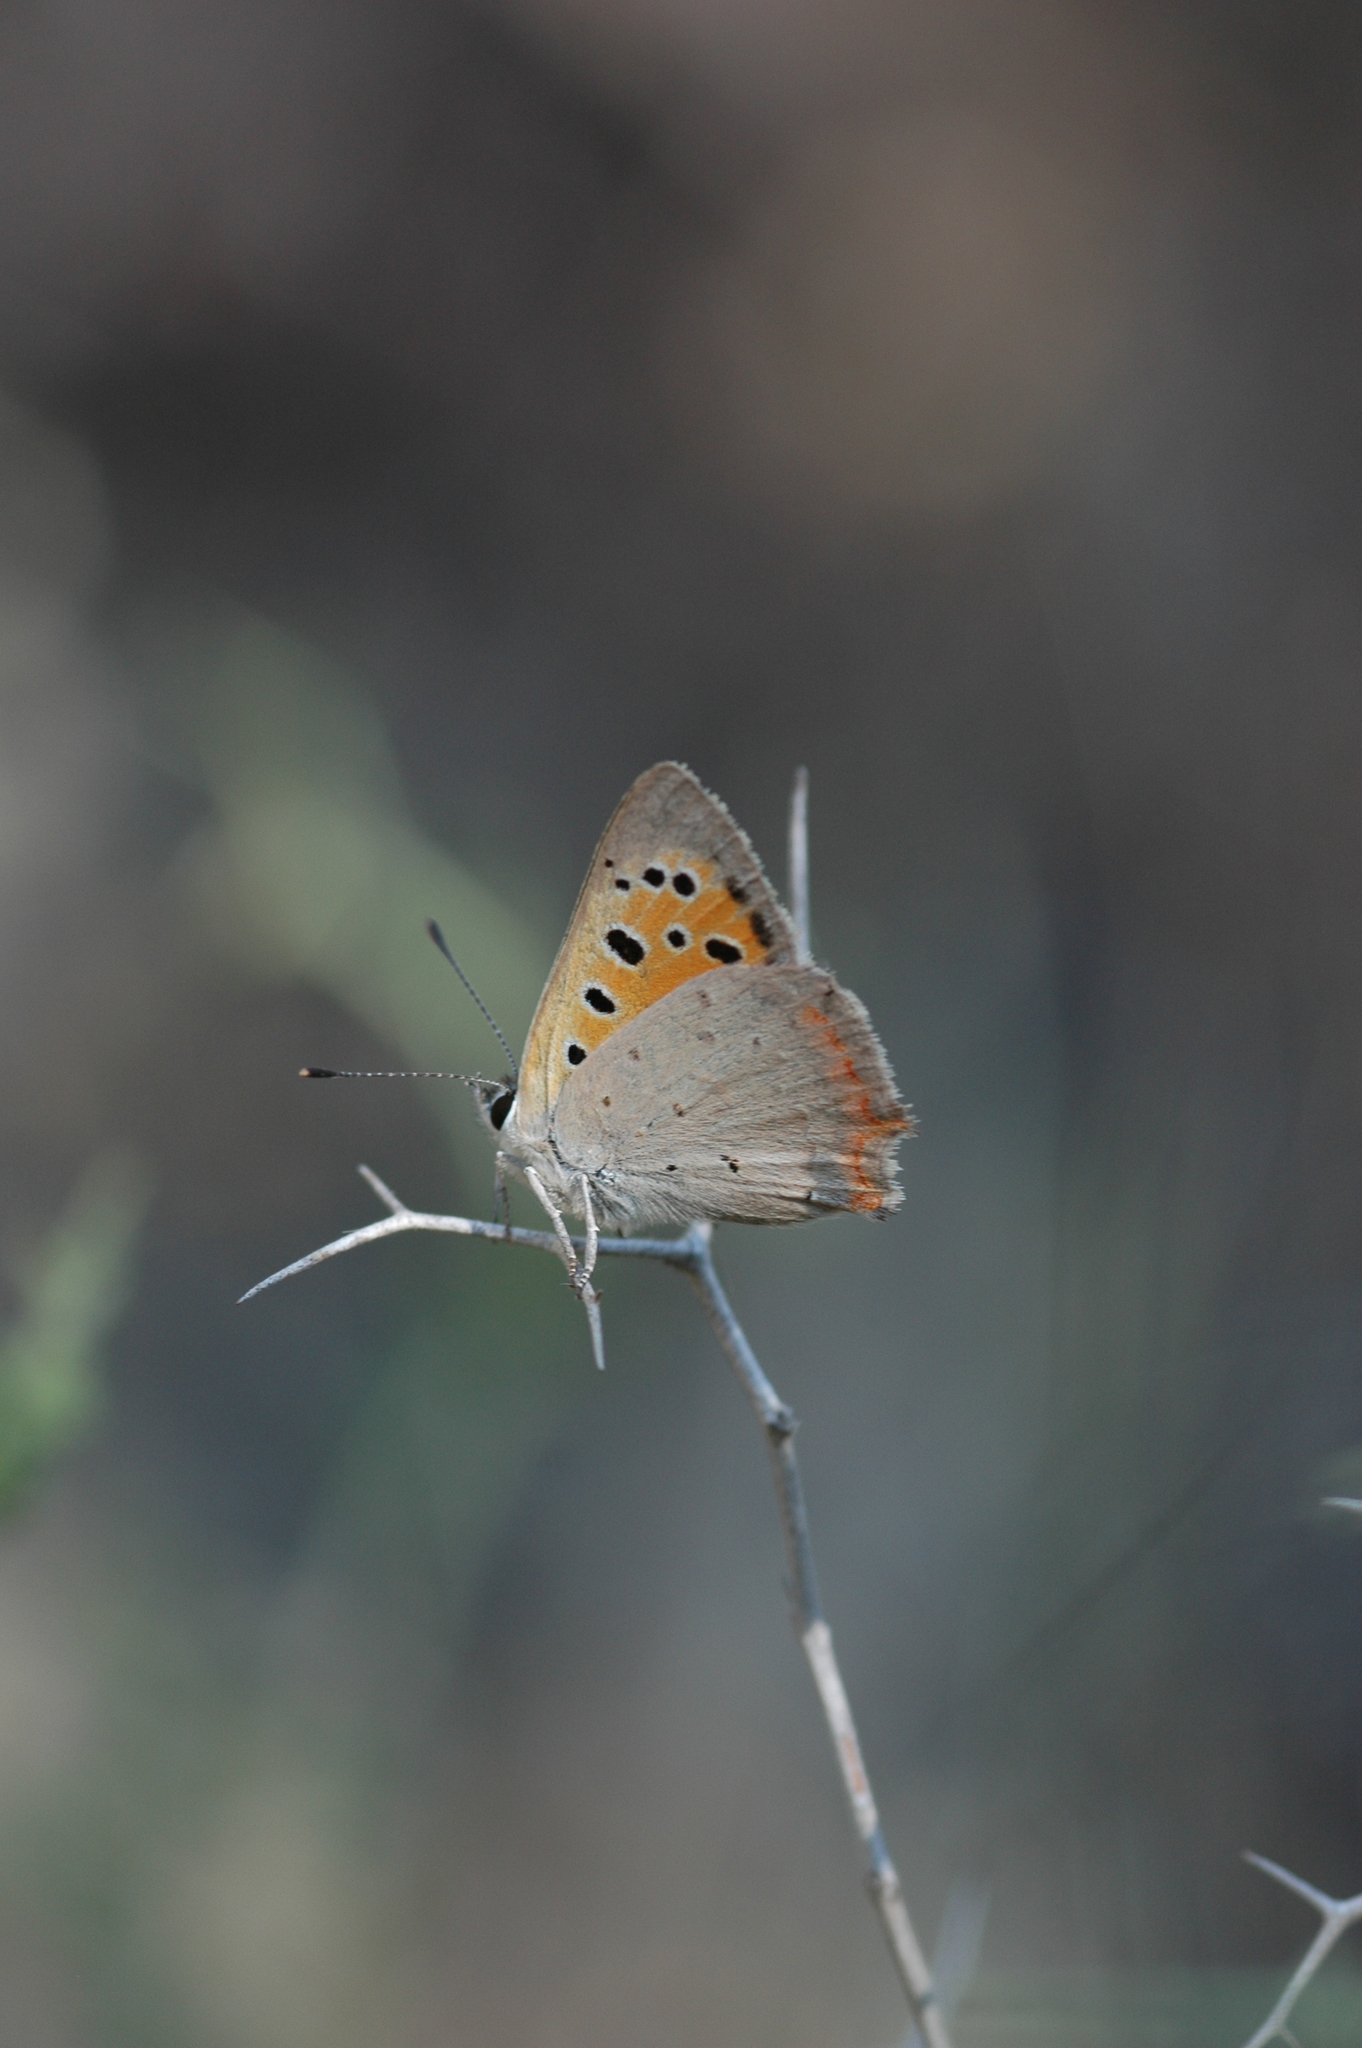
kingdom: Animalia
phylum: Arthropoda
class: Insecta
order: Lepidoptera
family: Lycaenidae
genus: Lycaena
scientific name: Lycaena phlaeas
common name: Small copper
